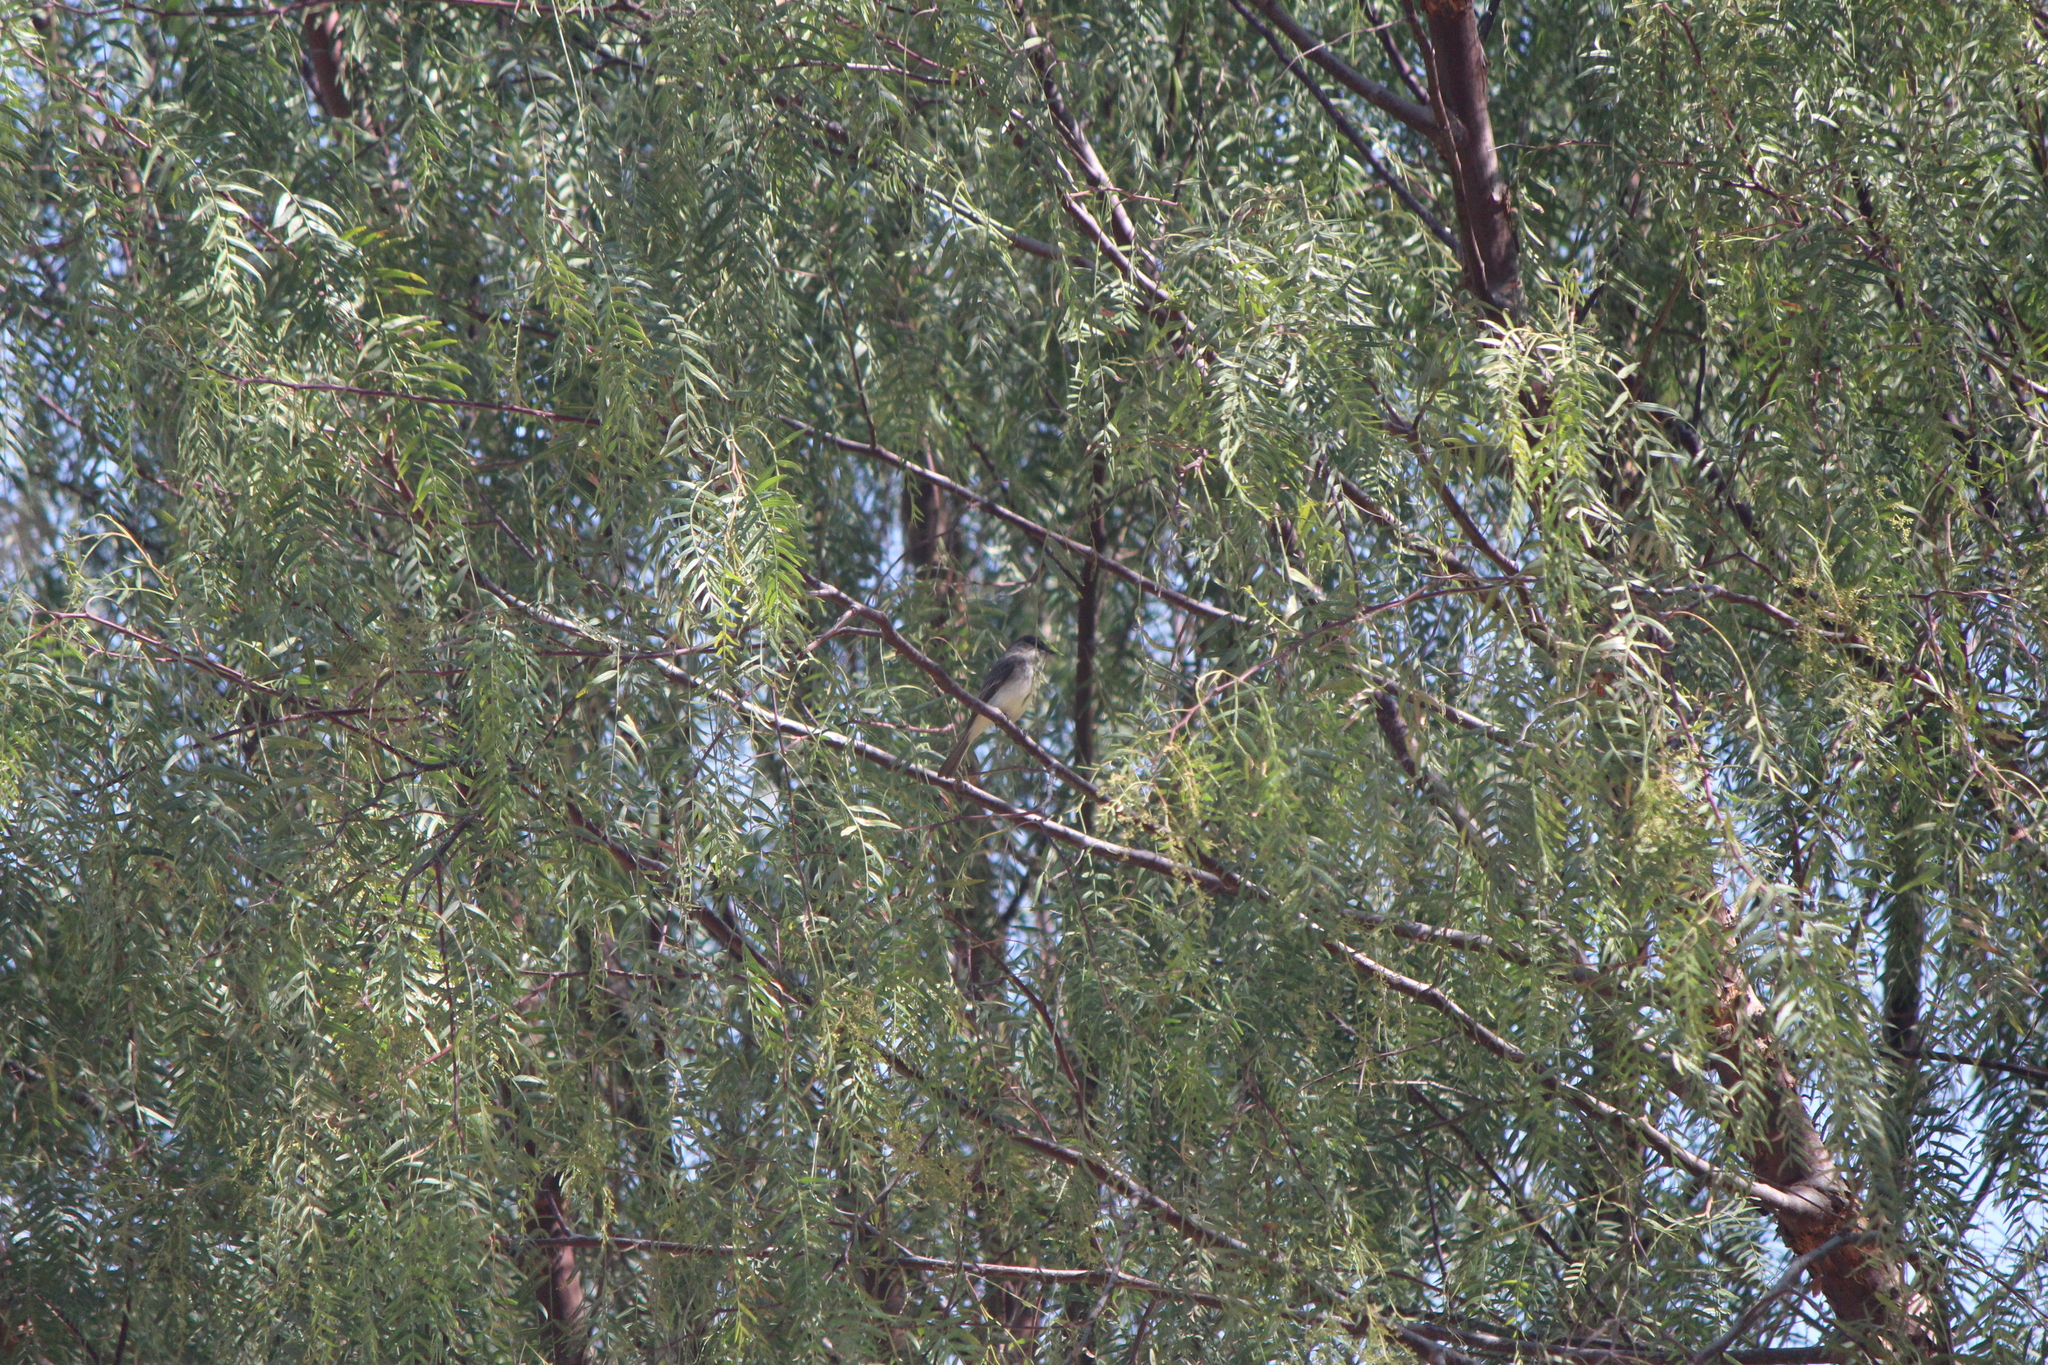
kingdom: Animalia
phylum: Chordata
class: Aves
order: Passeriformes
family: Tyrannidae
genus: Sayornis
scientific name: Sayornis phoebe
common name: Eastern phoebe
